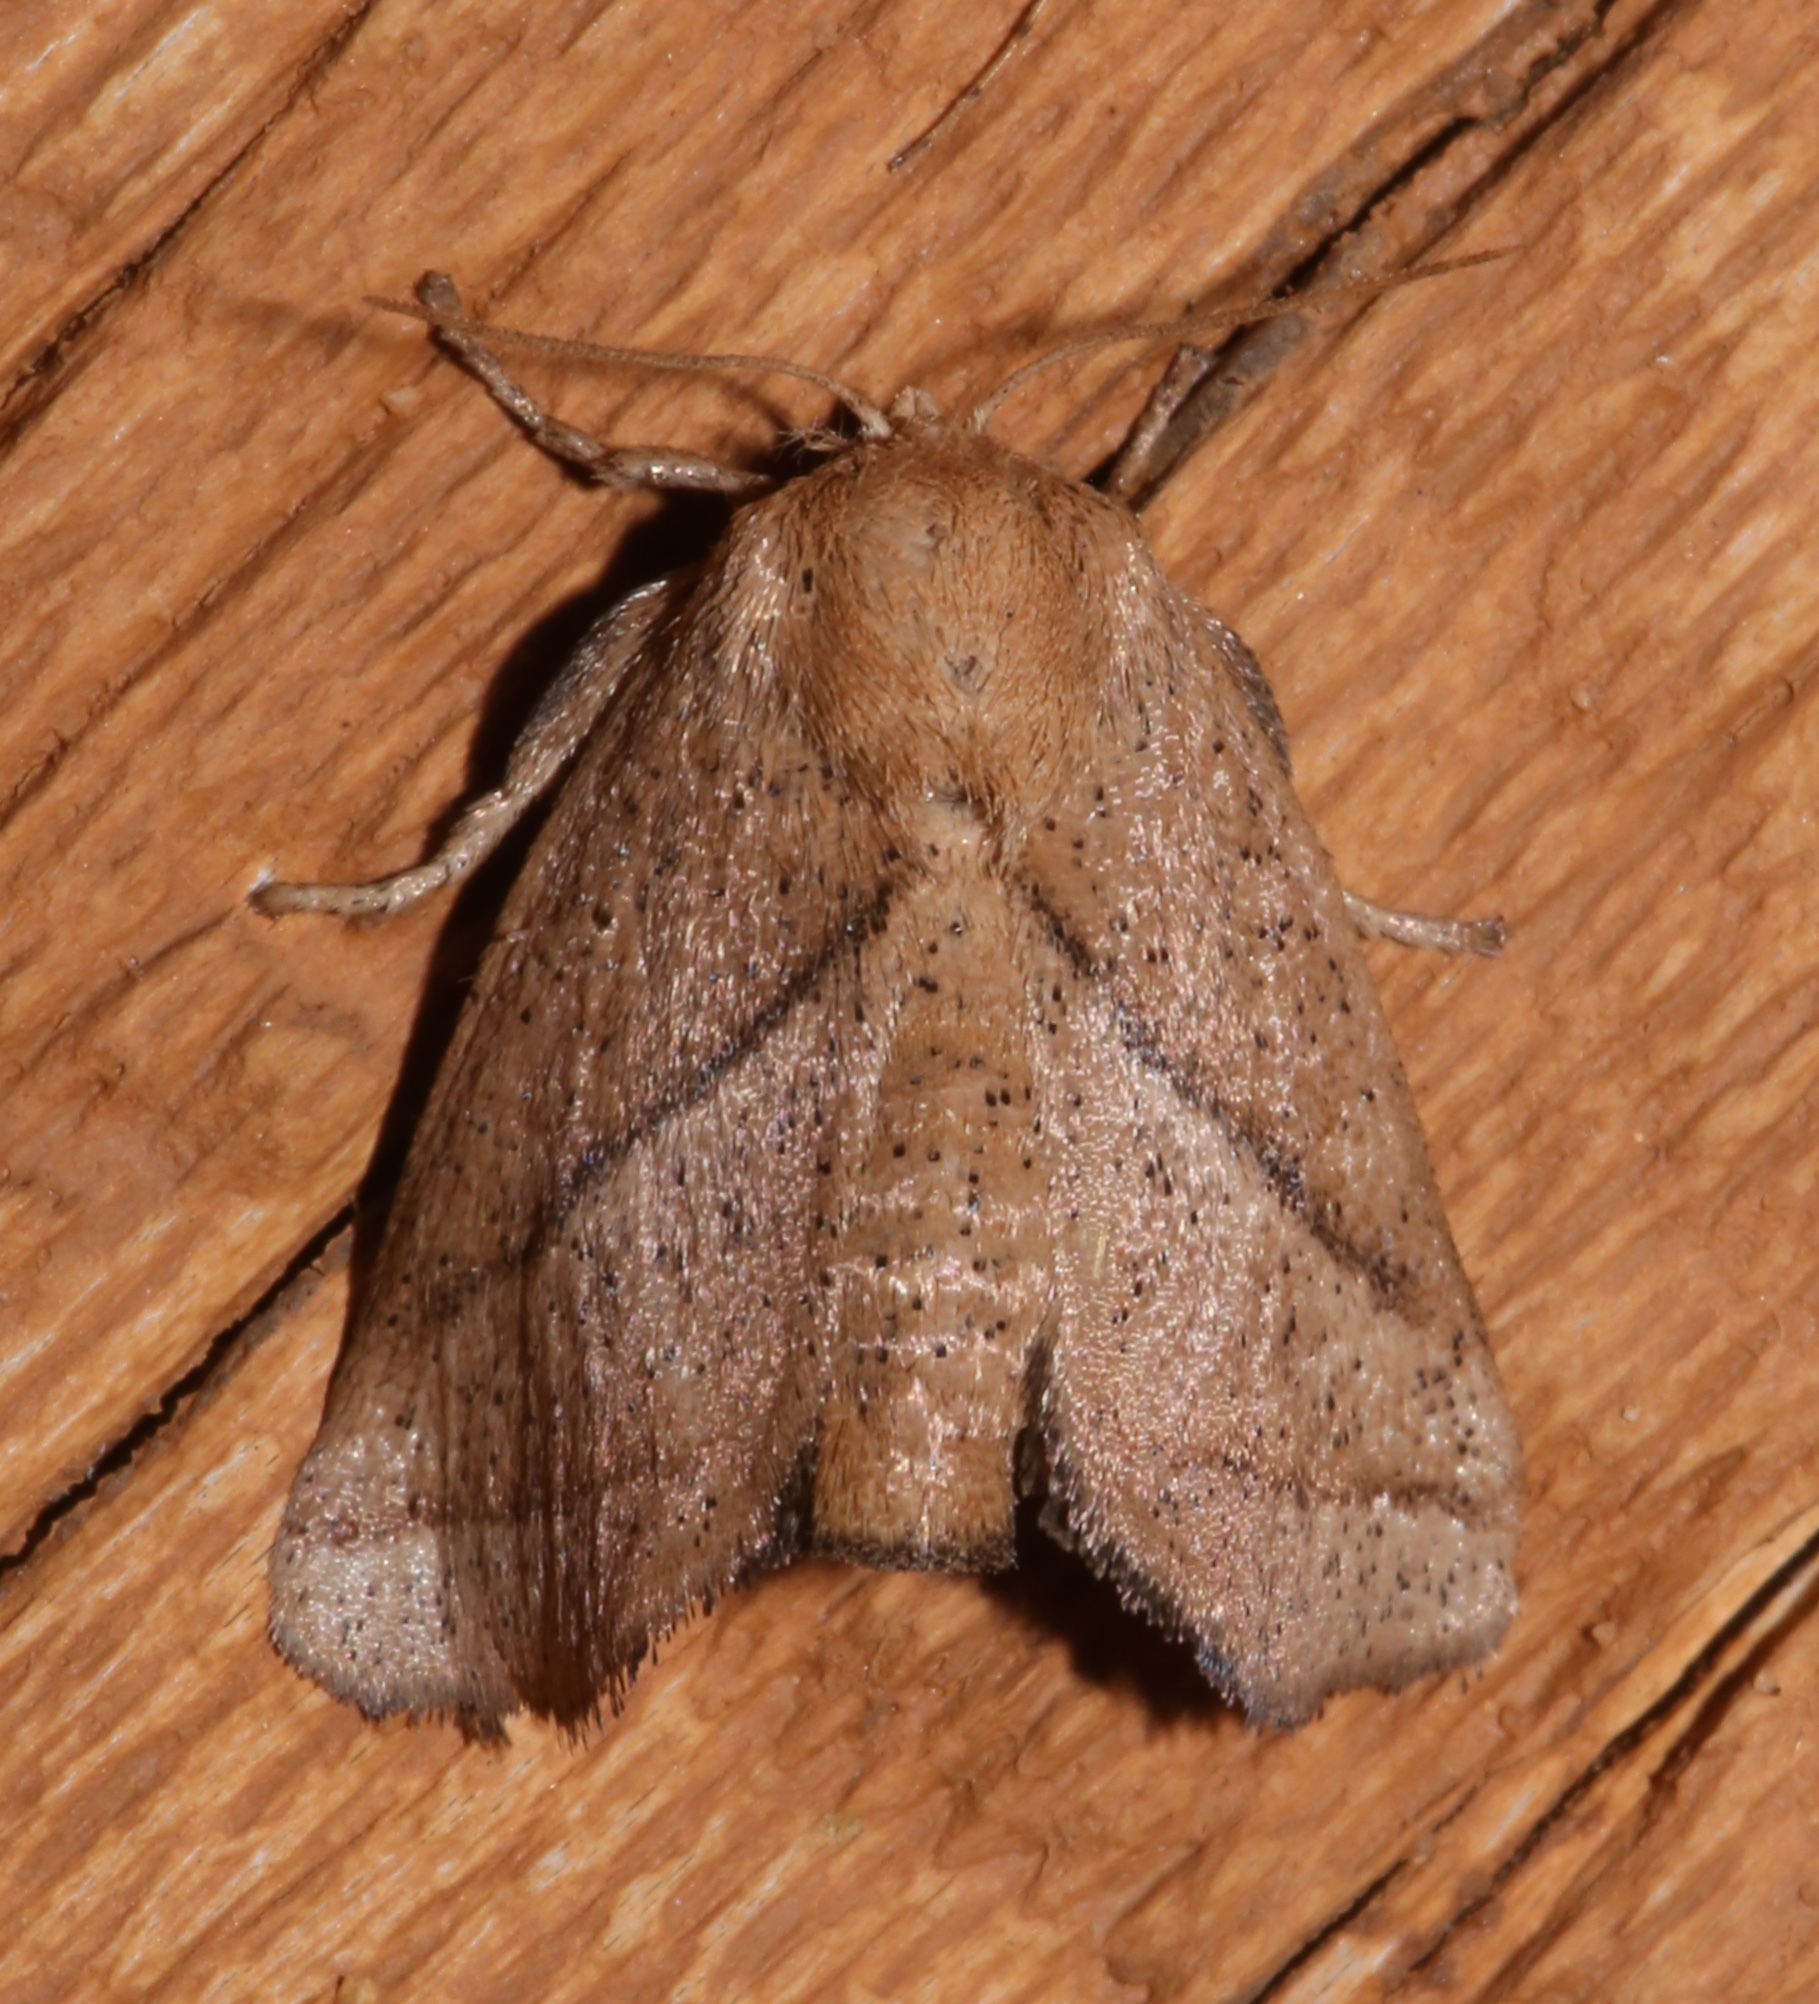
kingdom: Animalia
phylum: Arthropoda
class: Insecta
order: Lepidoptera
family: Limacodidae
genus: Natada
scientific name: Natada nasoni
